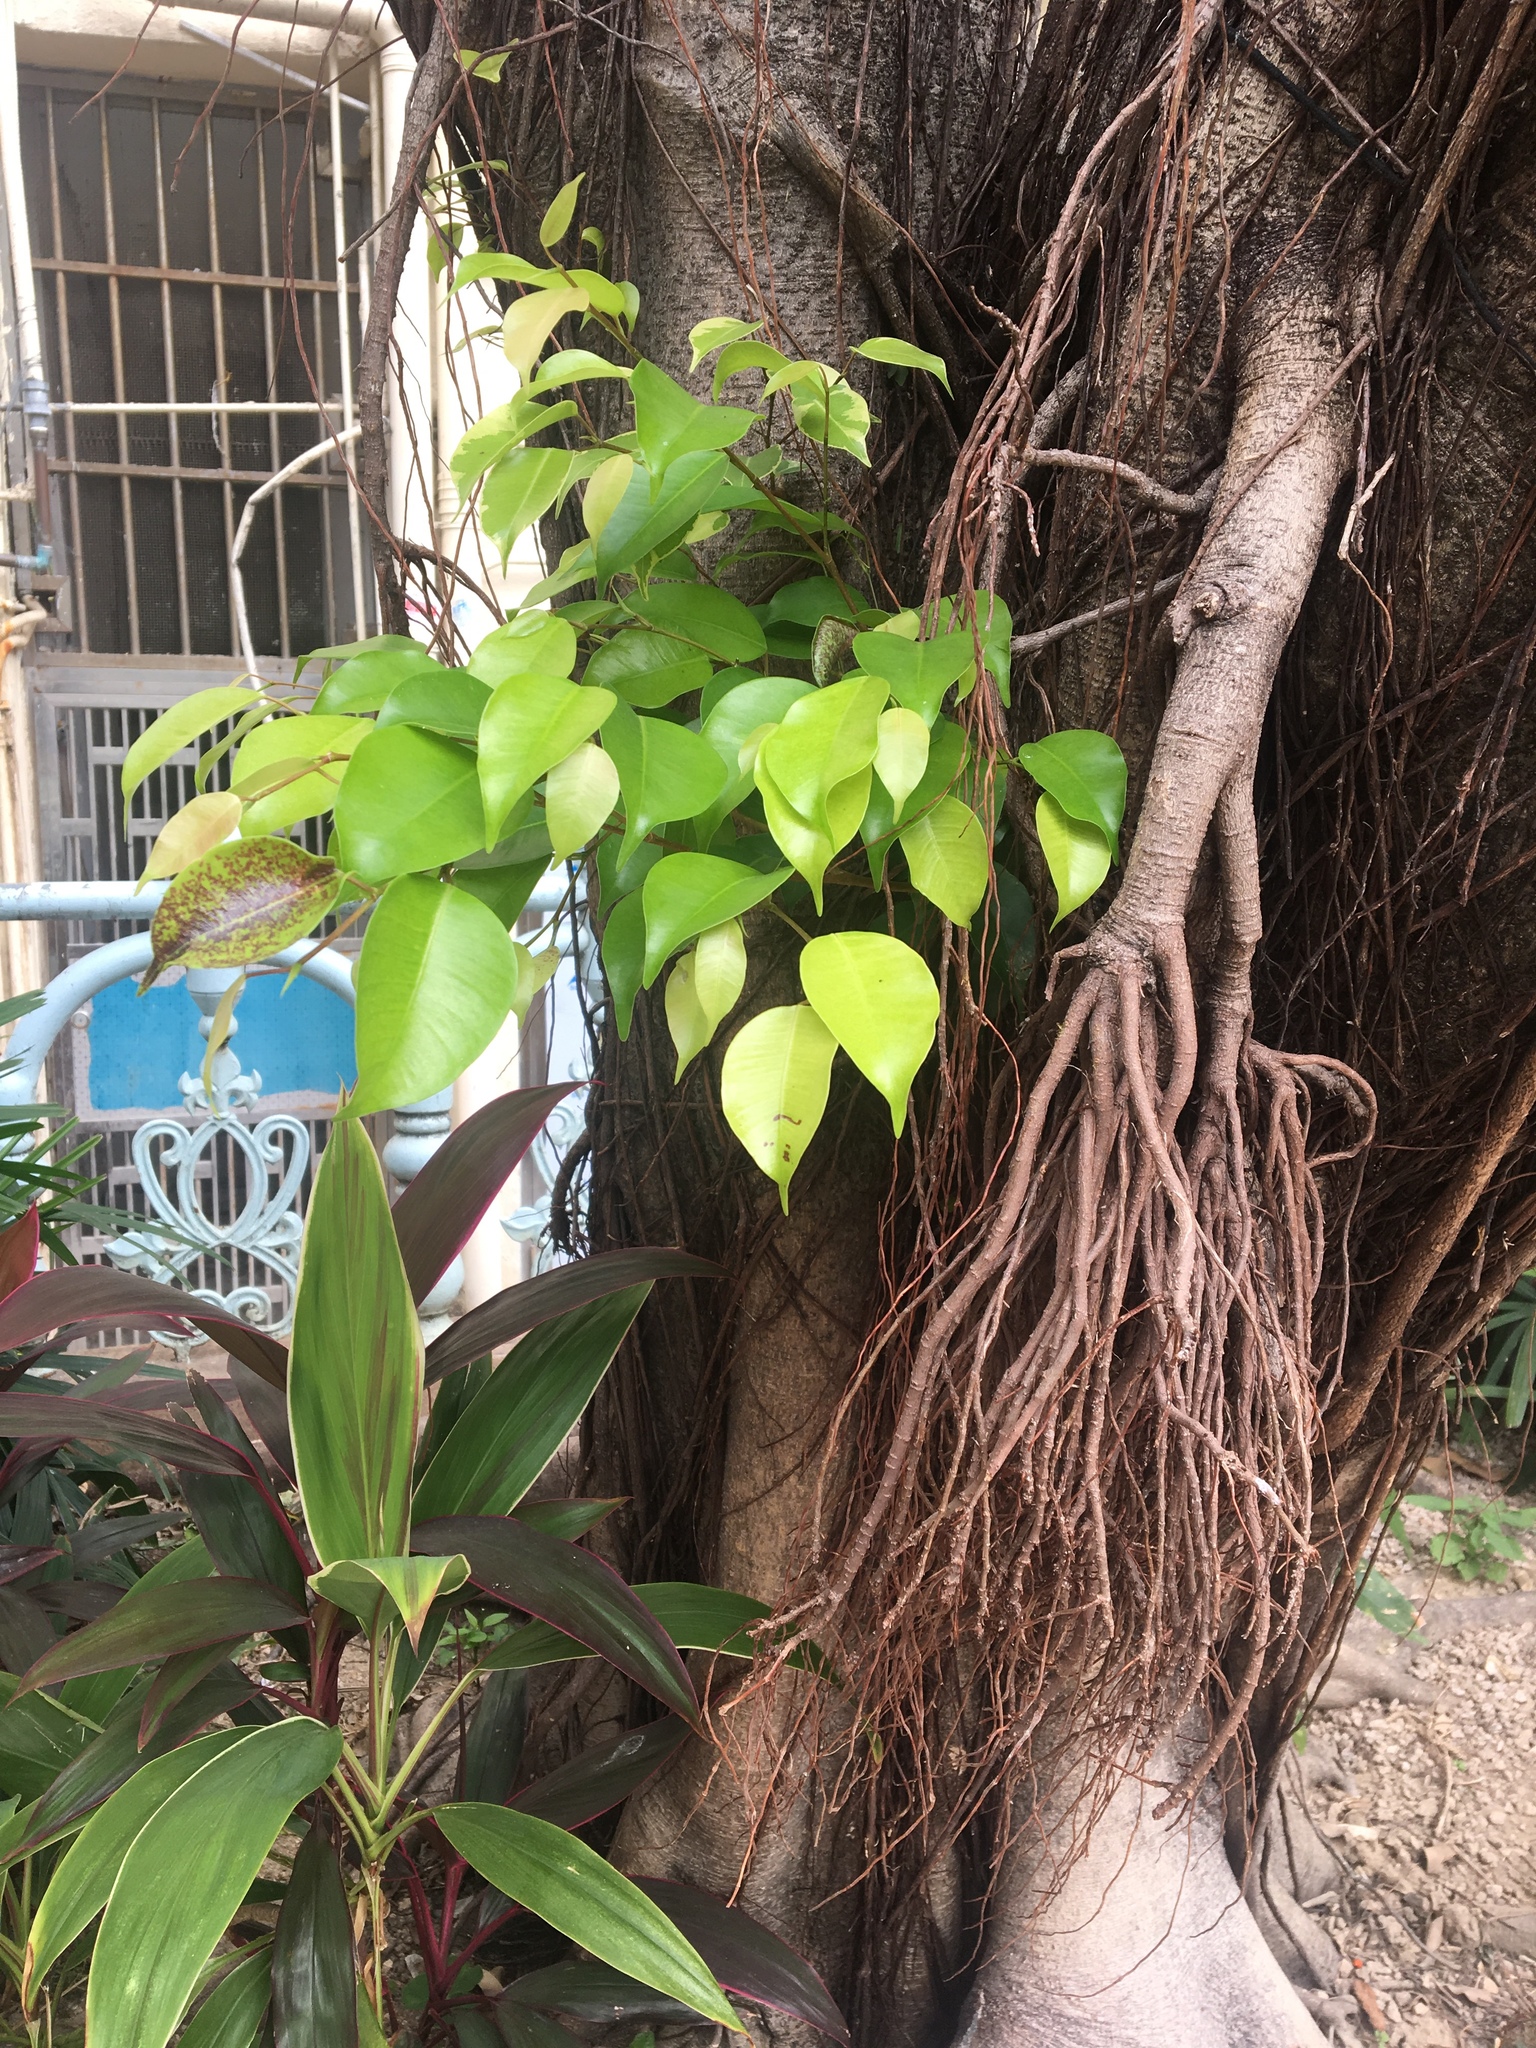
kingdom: Plantae
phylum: Tracheophyta
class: Magnoliopsida
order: Rosales
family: Moraceae
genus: Ficus
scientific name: Ficus benjamina
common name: Weeping fig
